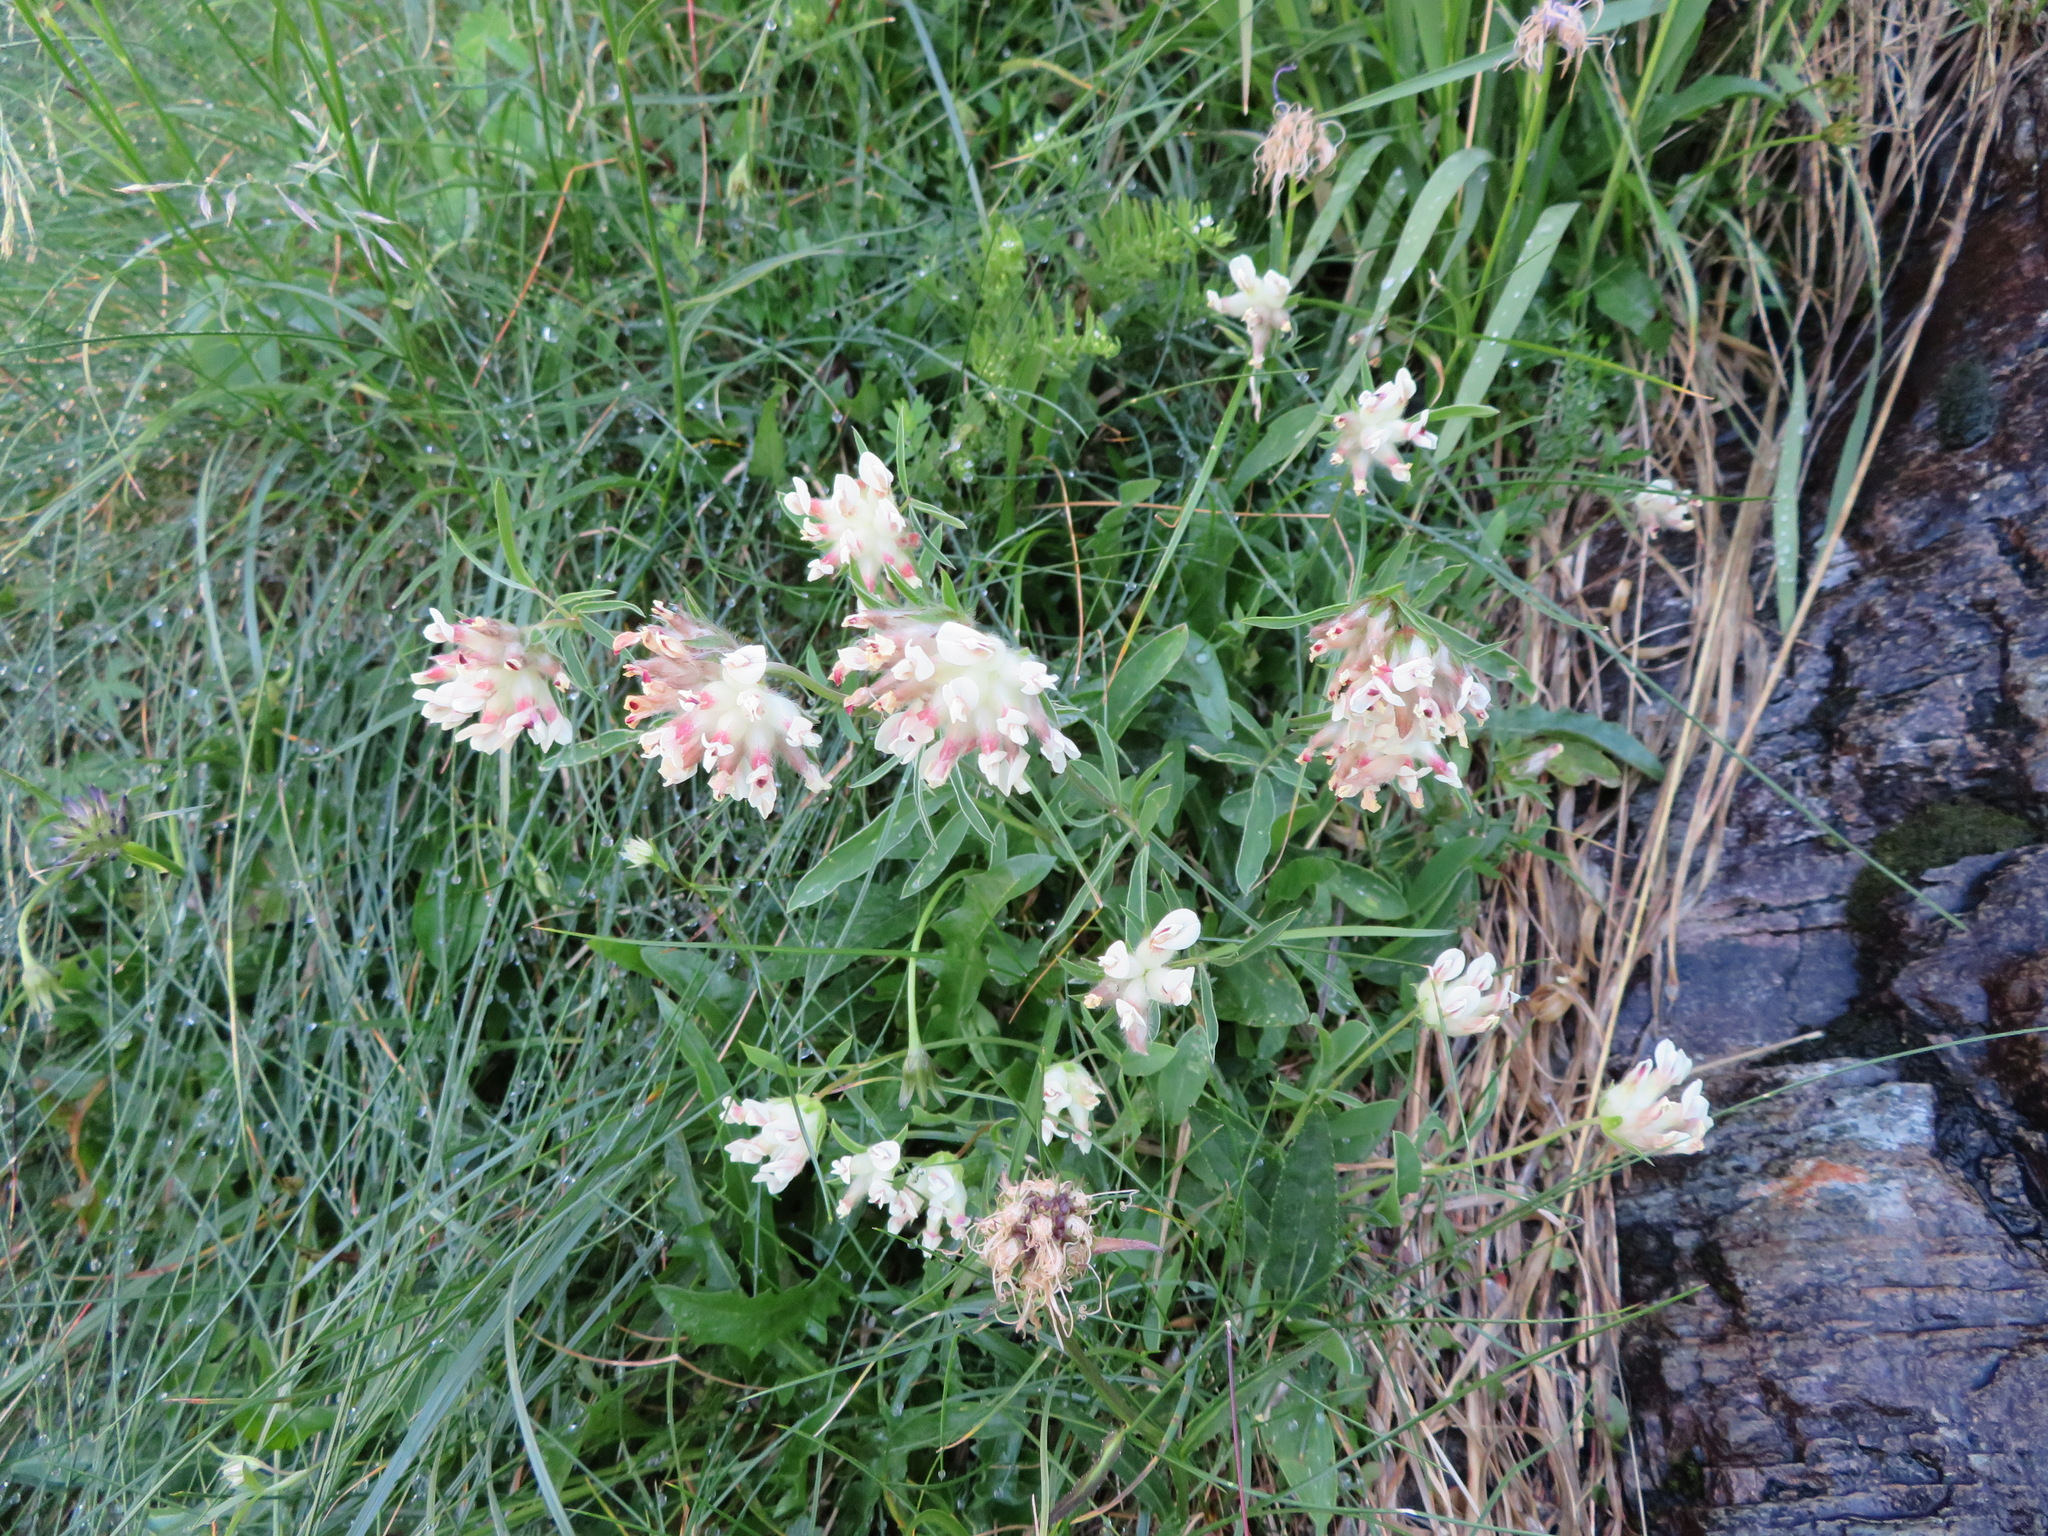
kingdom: Plantae
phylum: Tracheophyta
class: Magnoliopsida
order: Fabales
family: Fabaceae
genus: Anthyllis
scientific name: Anthyllis vulneraria
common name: Kidney vetch
